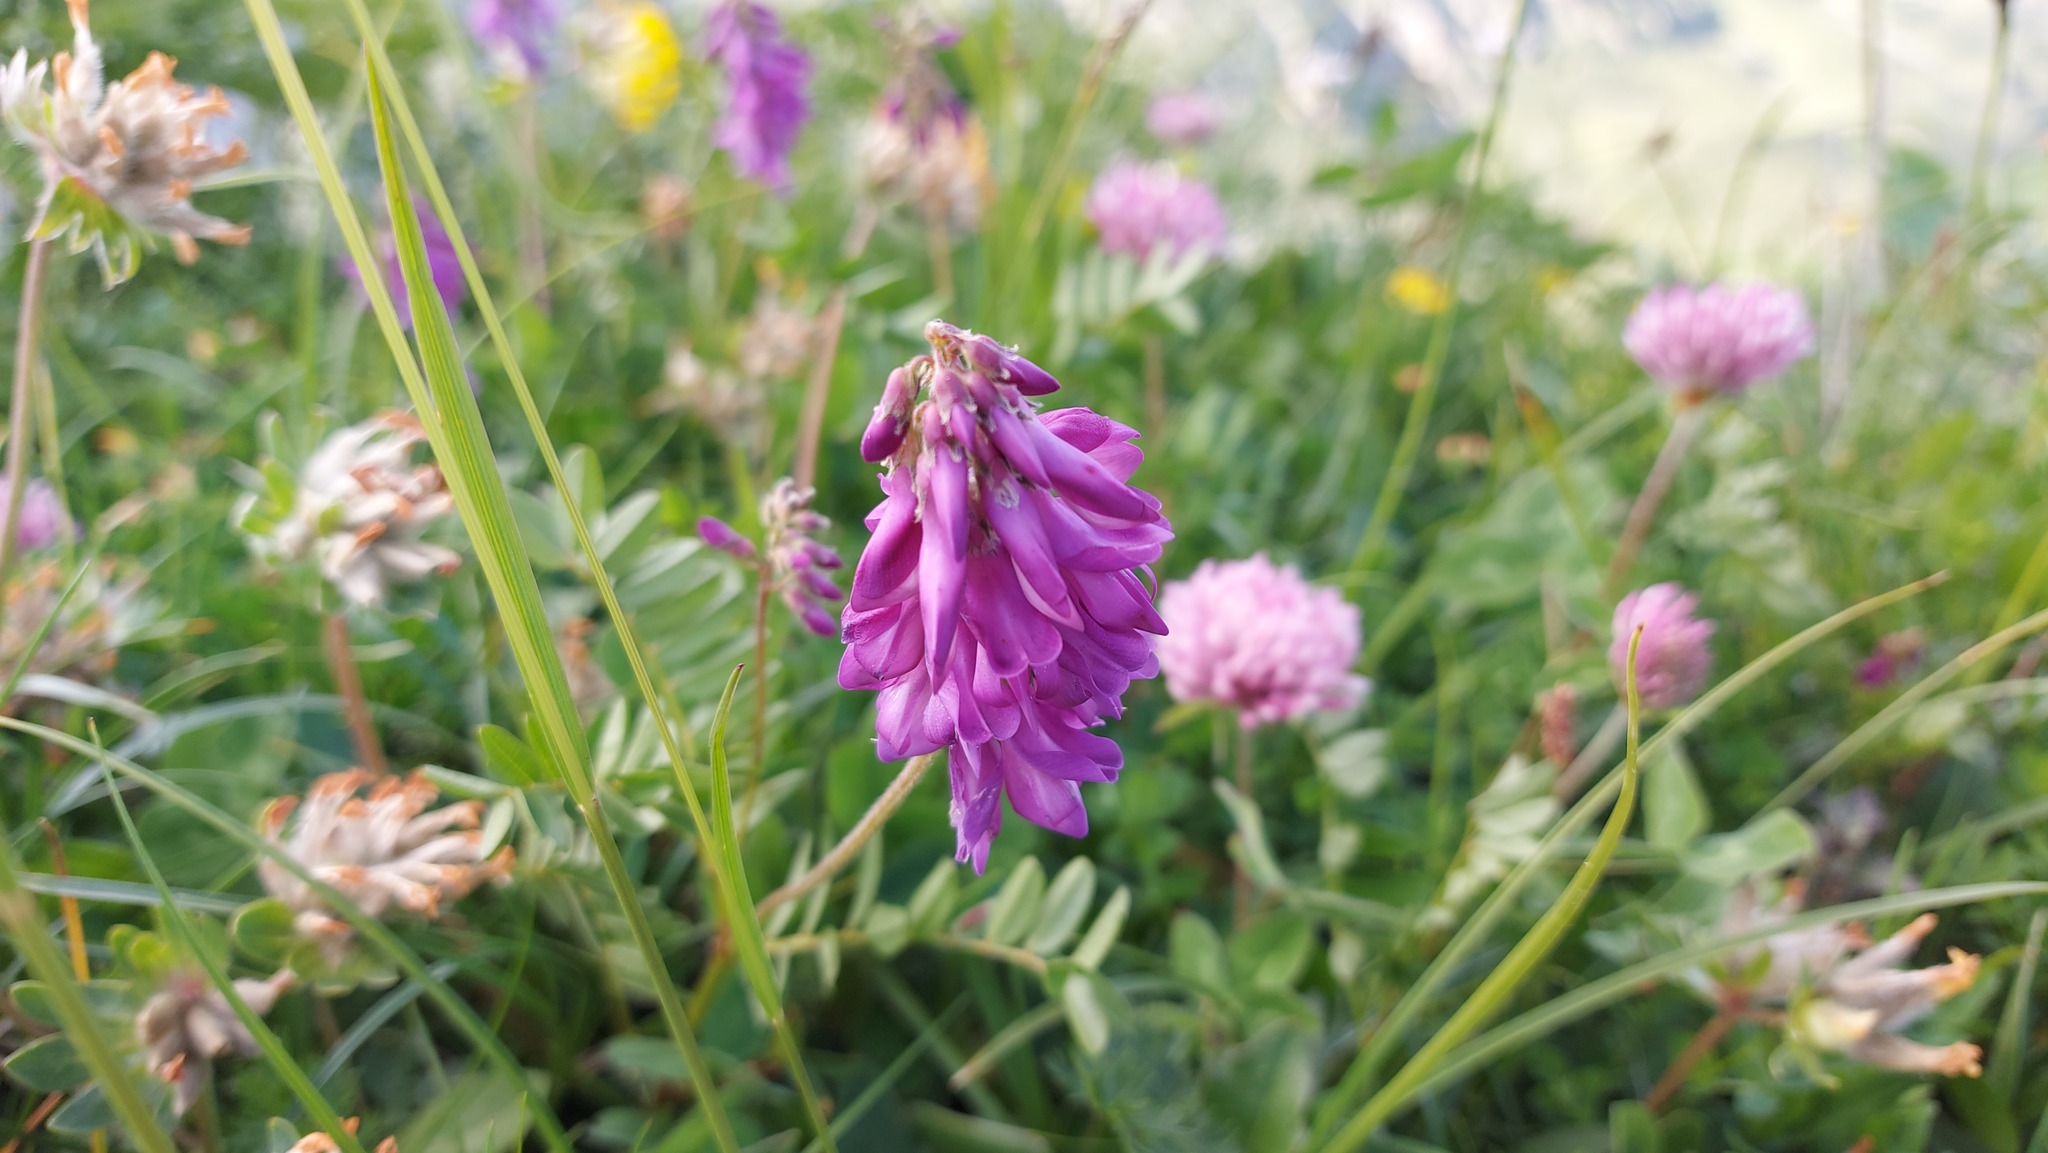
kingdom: Plantae
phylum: Tracheophyta
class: Magnoliopsida
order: Fabales
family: Fabaceae
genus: Hedysarum
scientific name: Hedysarum hedysaroides
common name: Alpine french-honeysuckle
